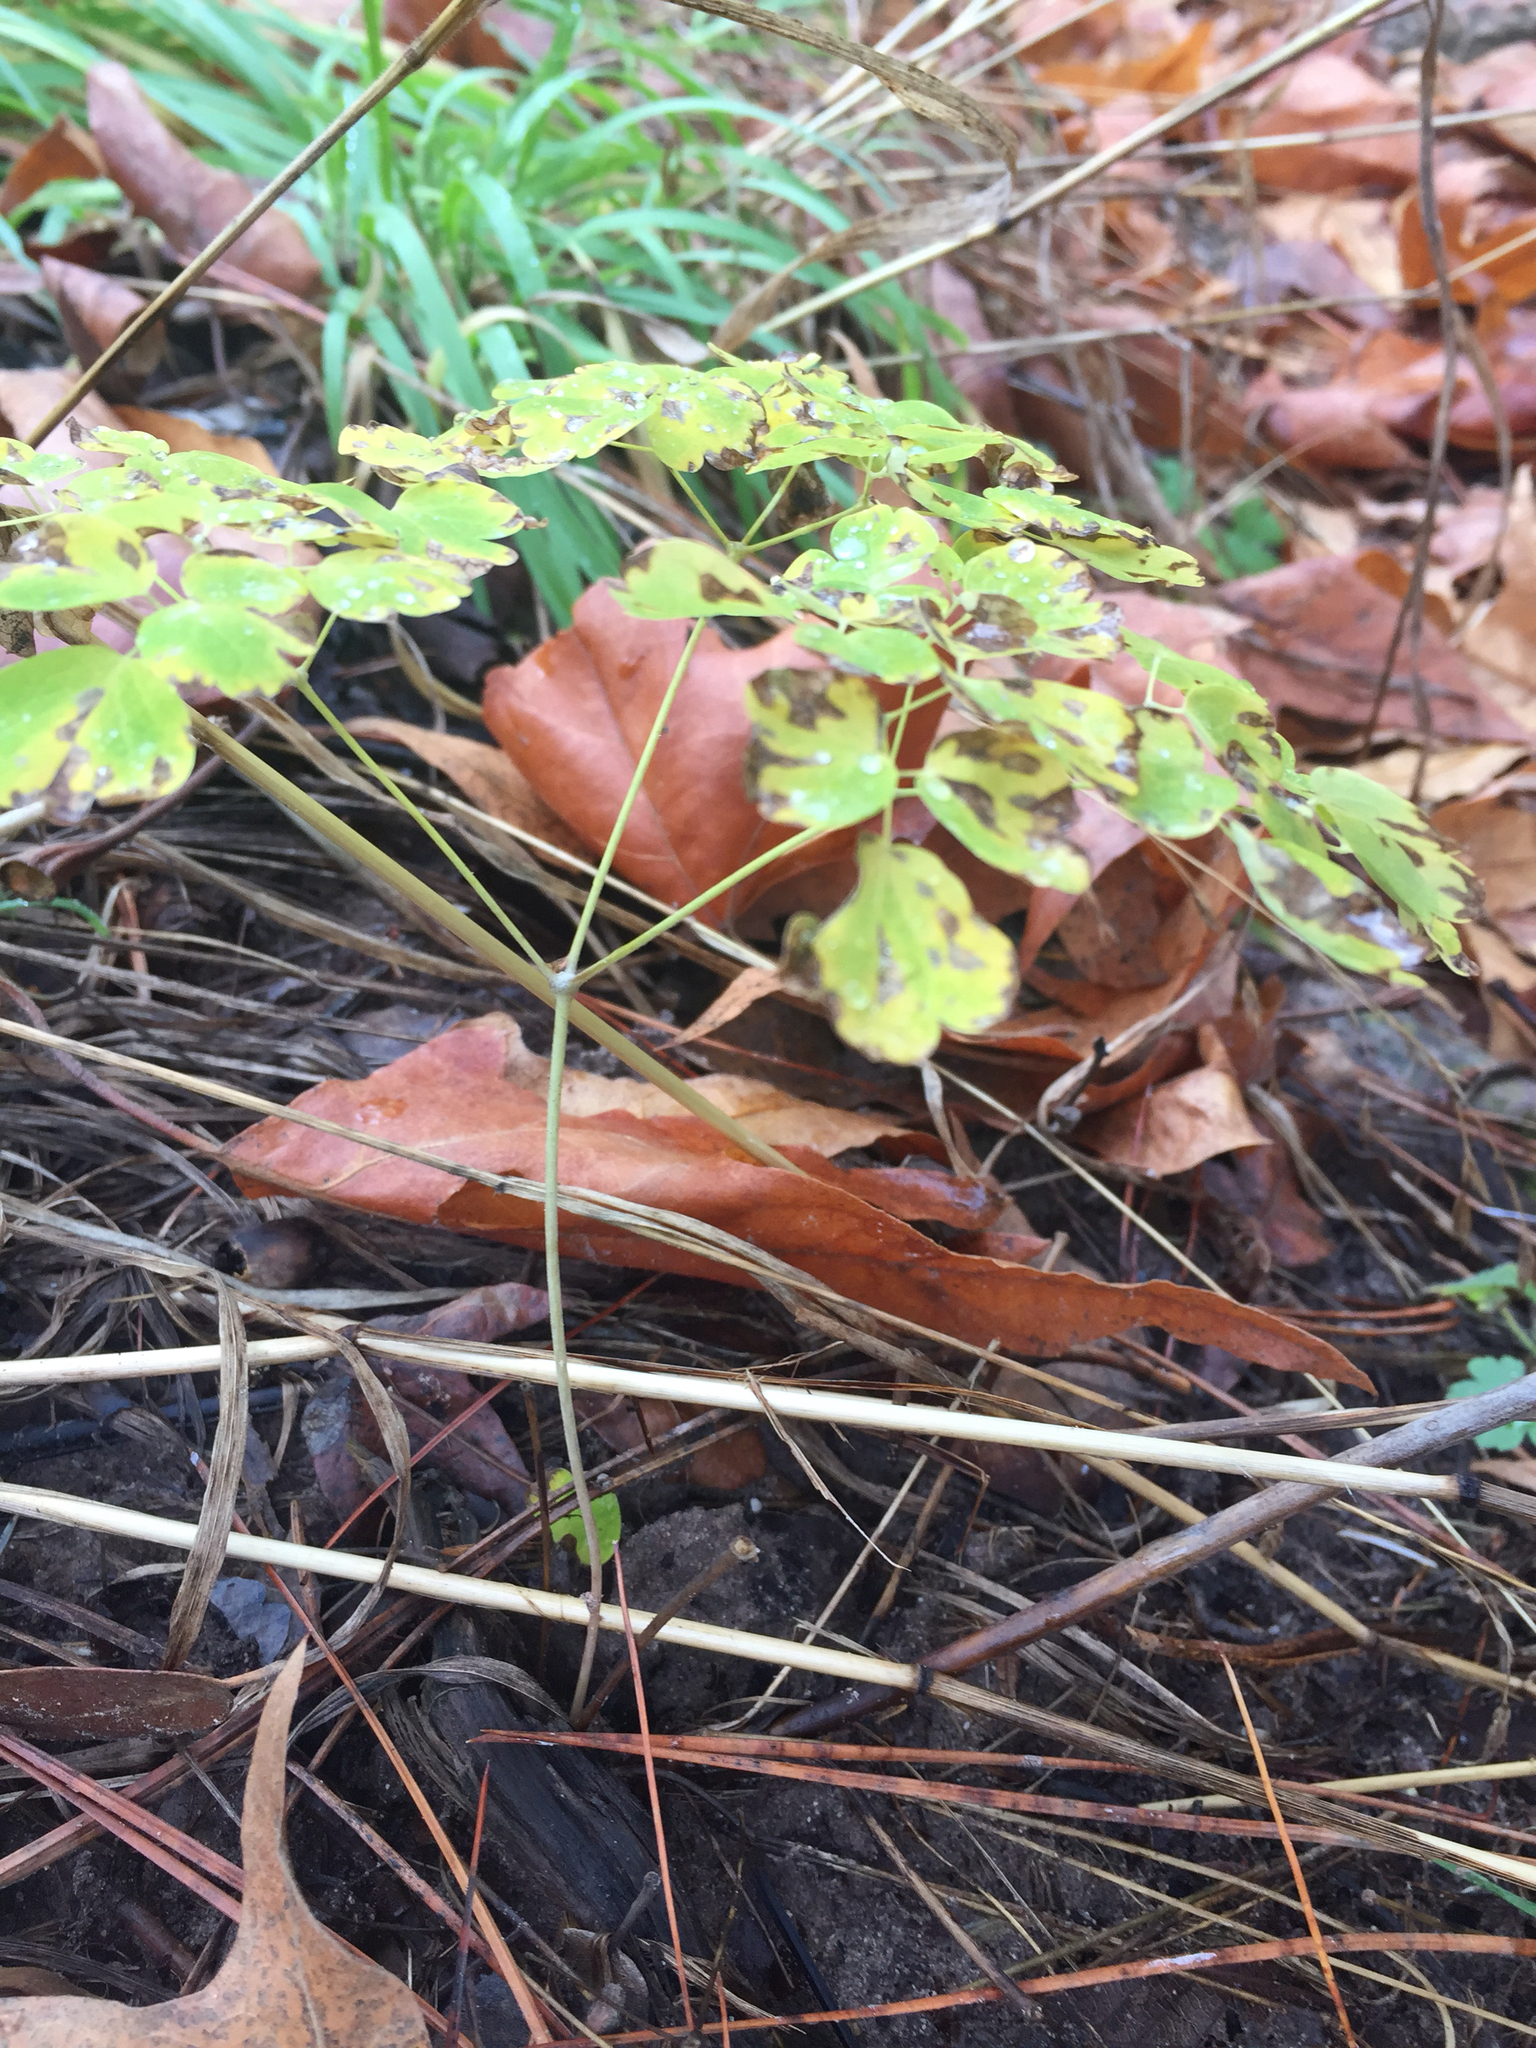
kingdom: Plantae
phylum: Tracheophyta
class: Magnoliopsida
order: Ranunculales
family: Ranunculaceae
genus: Thalictrum
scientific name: Thalictrum fendleri
